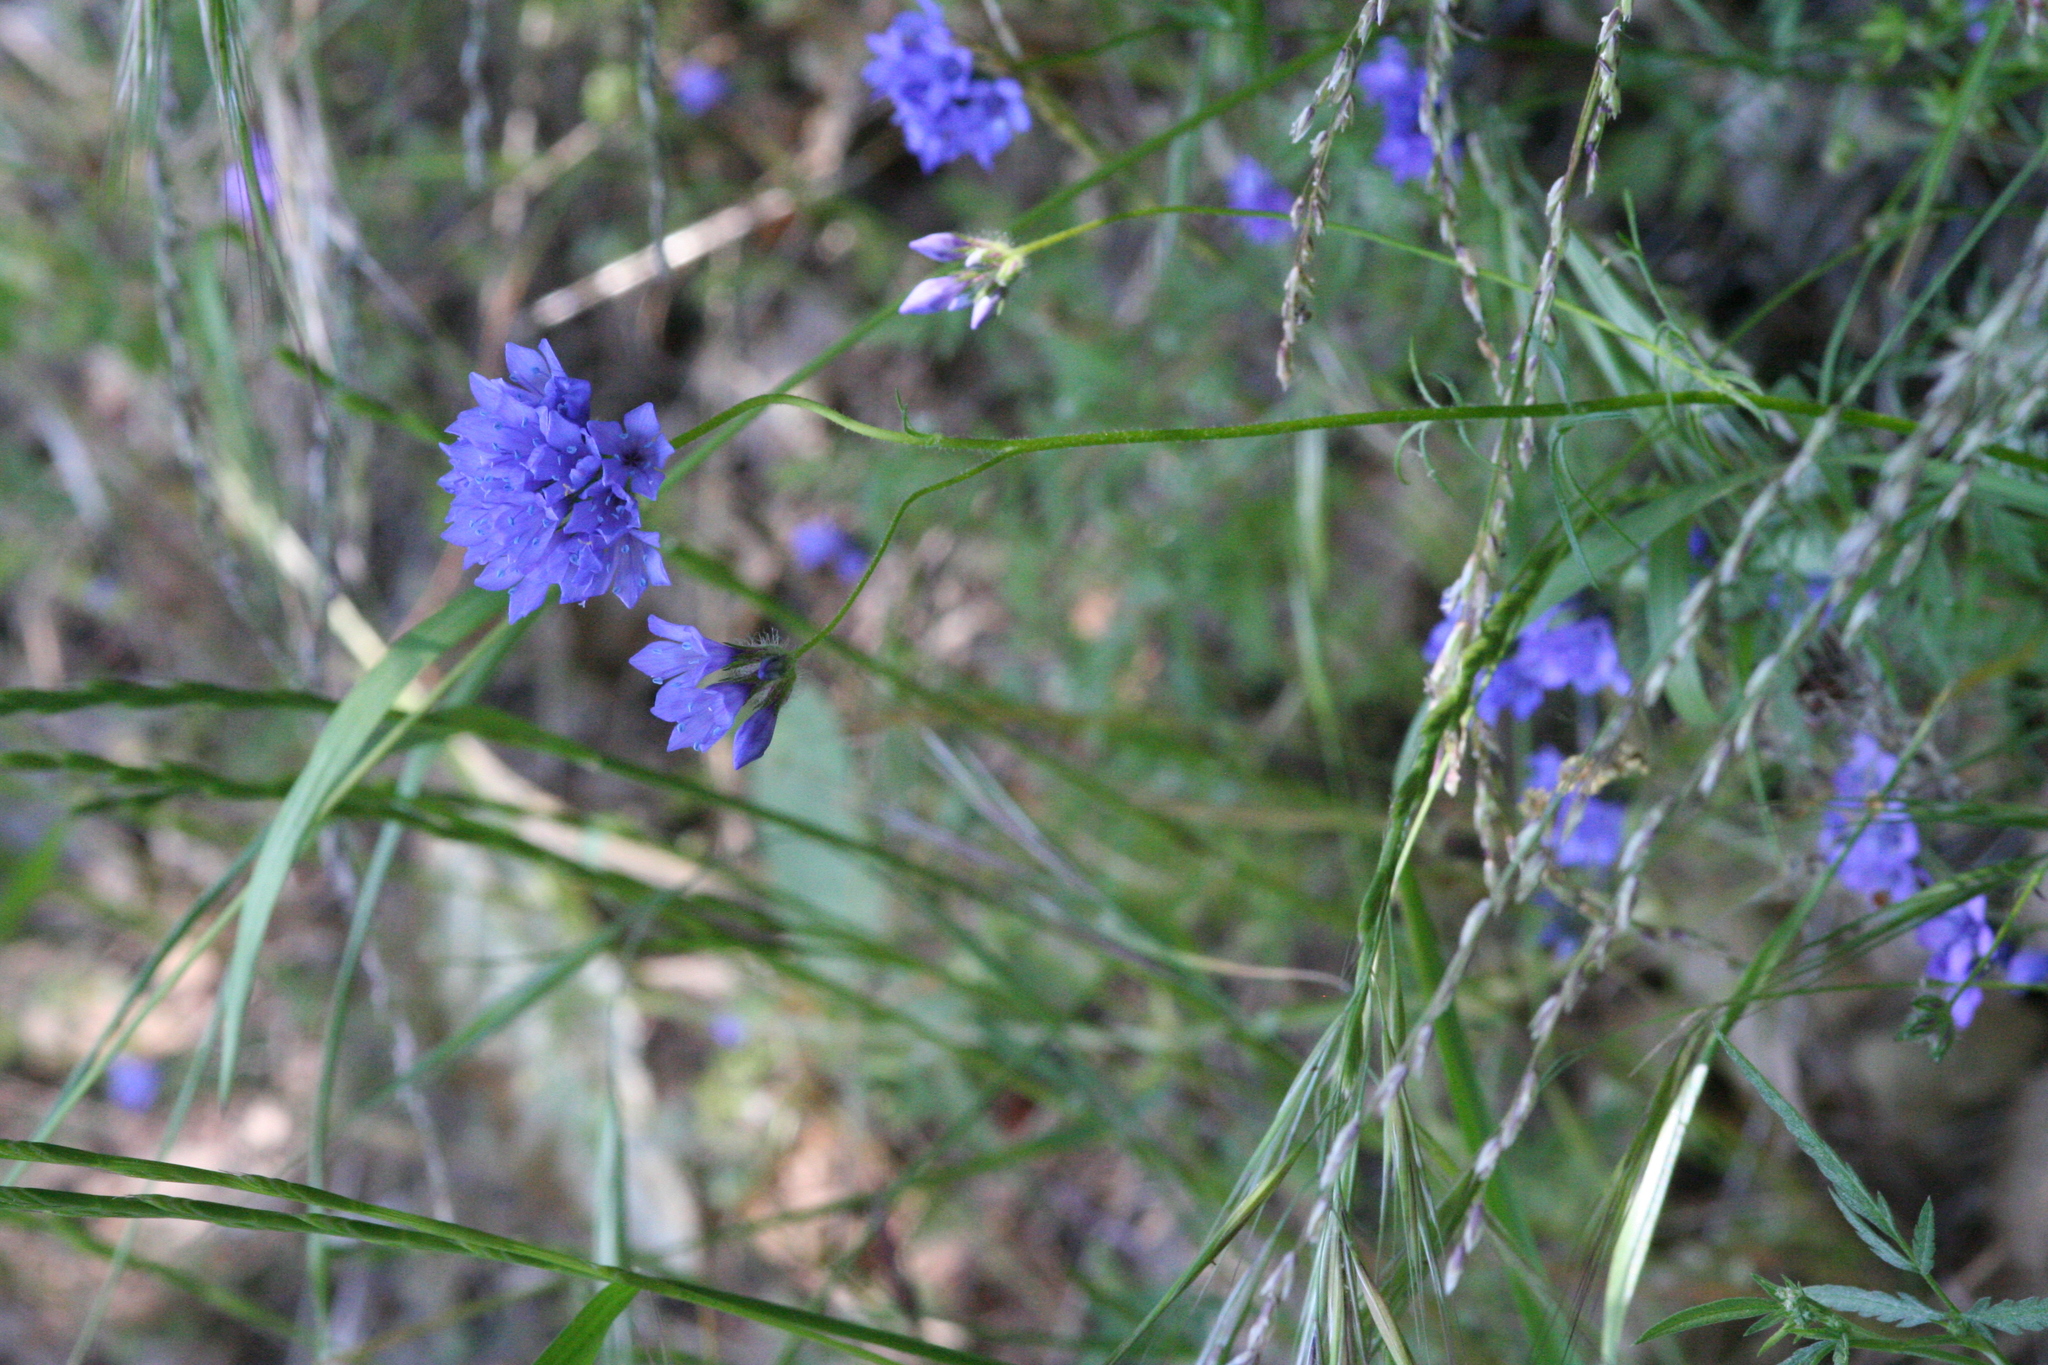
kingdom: Plantae
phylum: Tracheophyta
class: Magnoliopsida
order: Ericales
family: Polemoniaceae
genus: Gilia
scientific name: Gilia achilleifolia
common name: California gily-flower
